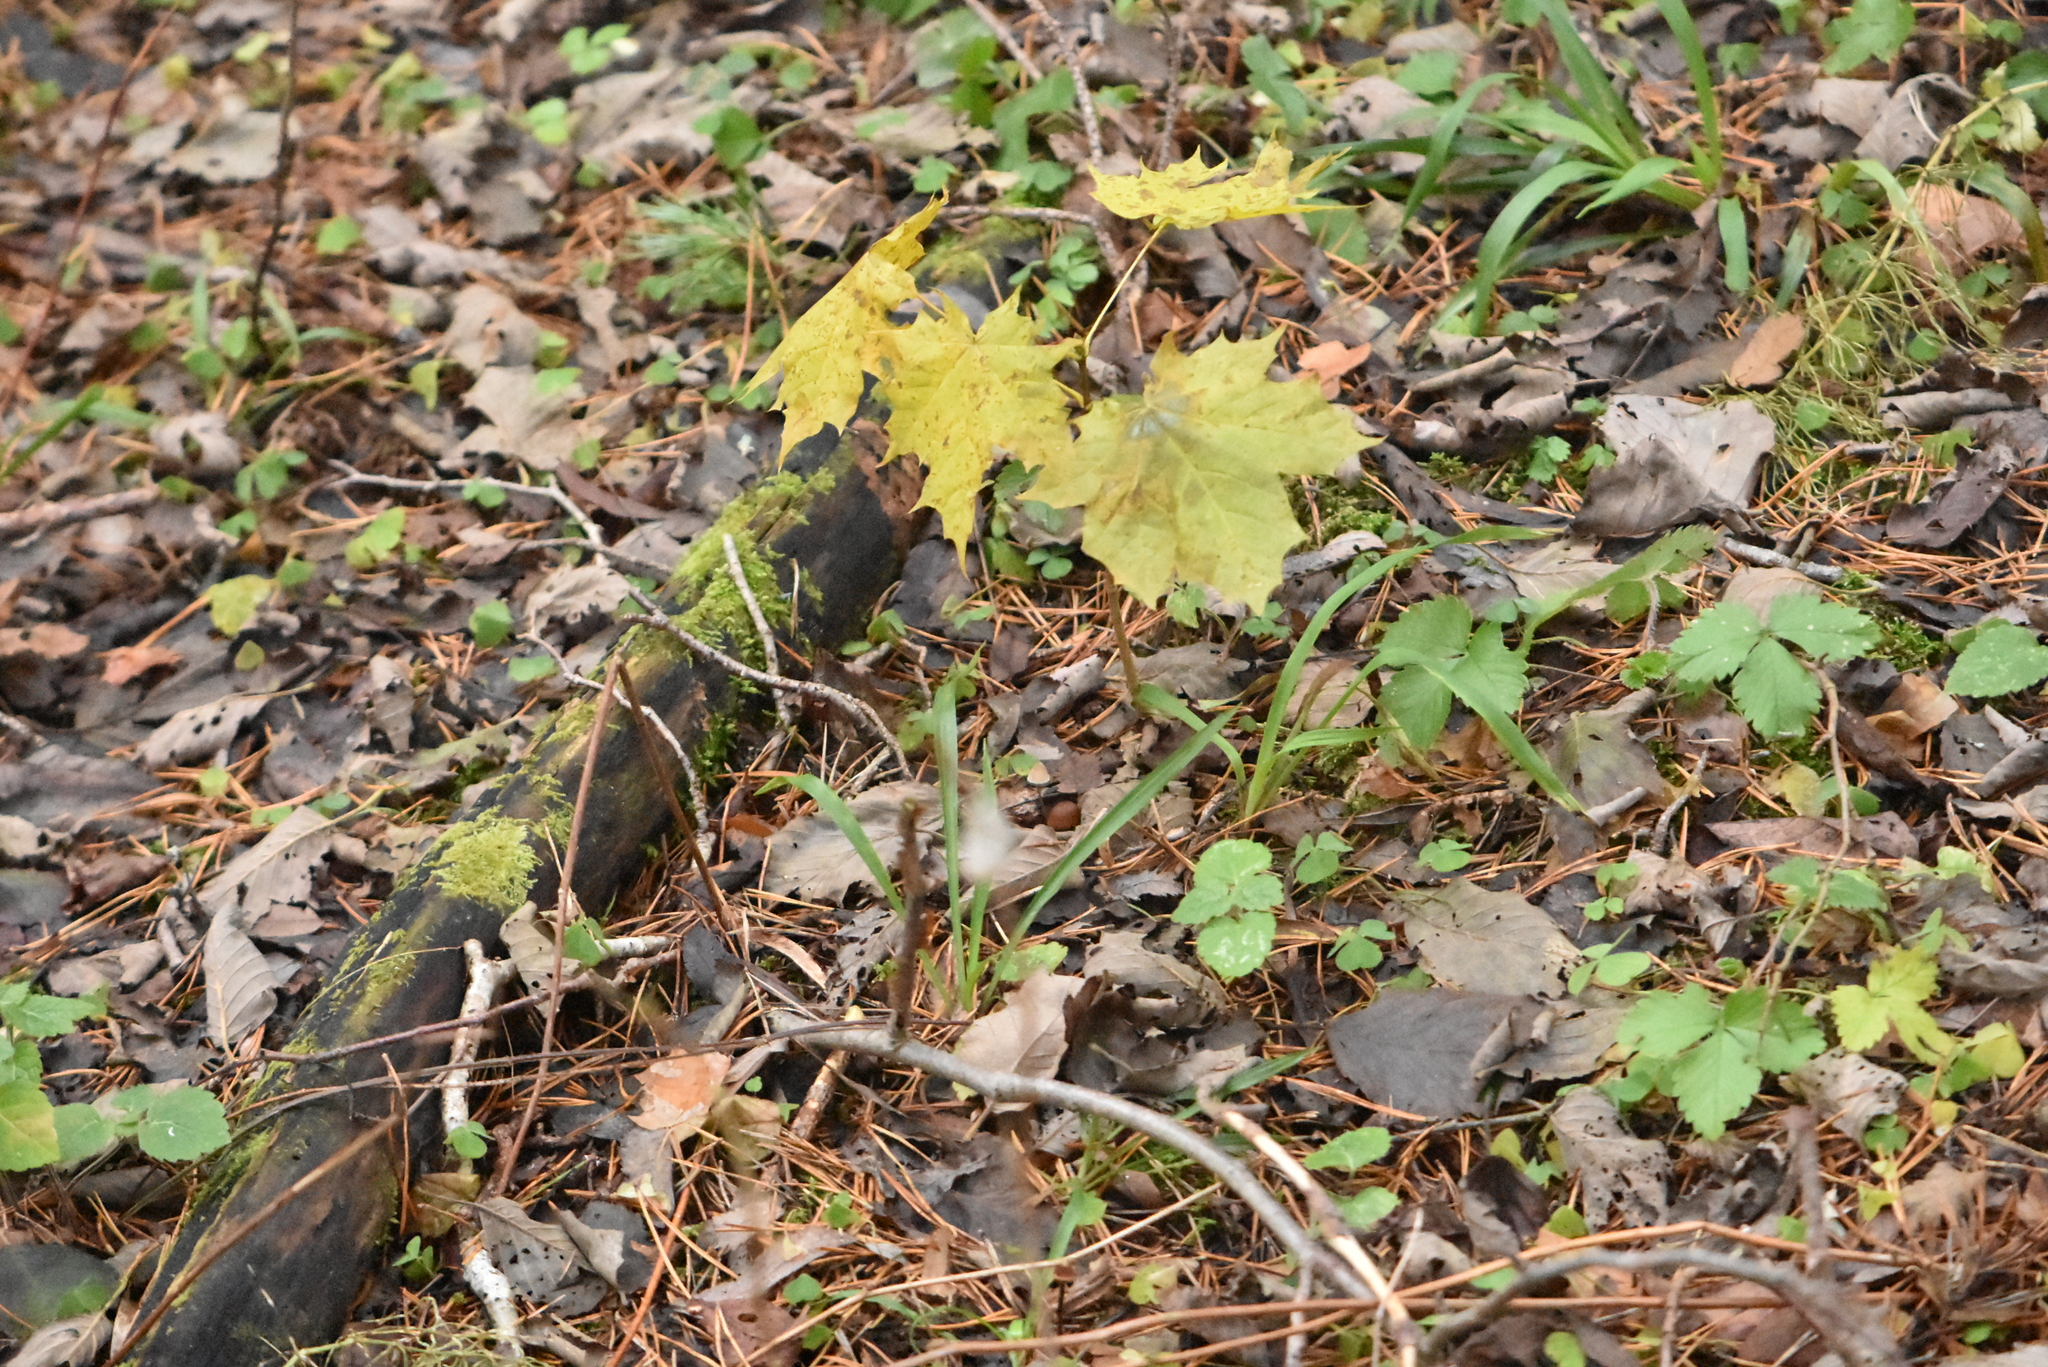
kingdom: Plantae
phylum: Tracheophyta
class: Magnoliopsida
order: Sapindales
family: Sapindaceae
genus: Acer
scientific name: Acer platanoides
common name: Norway maple
